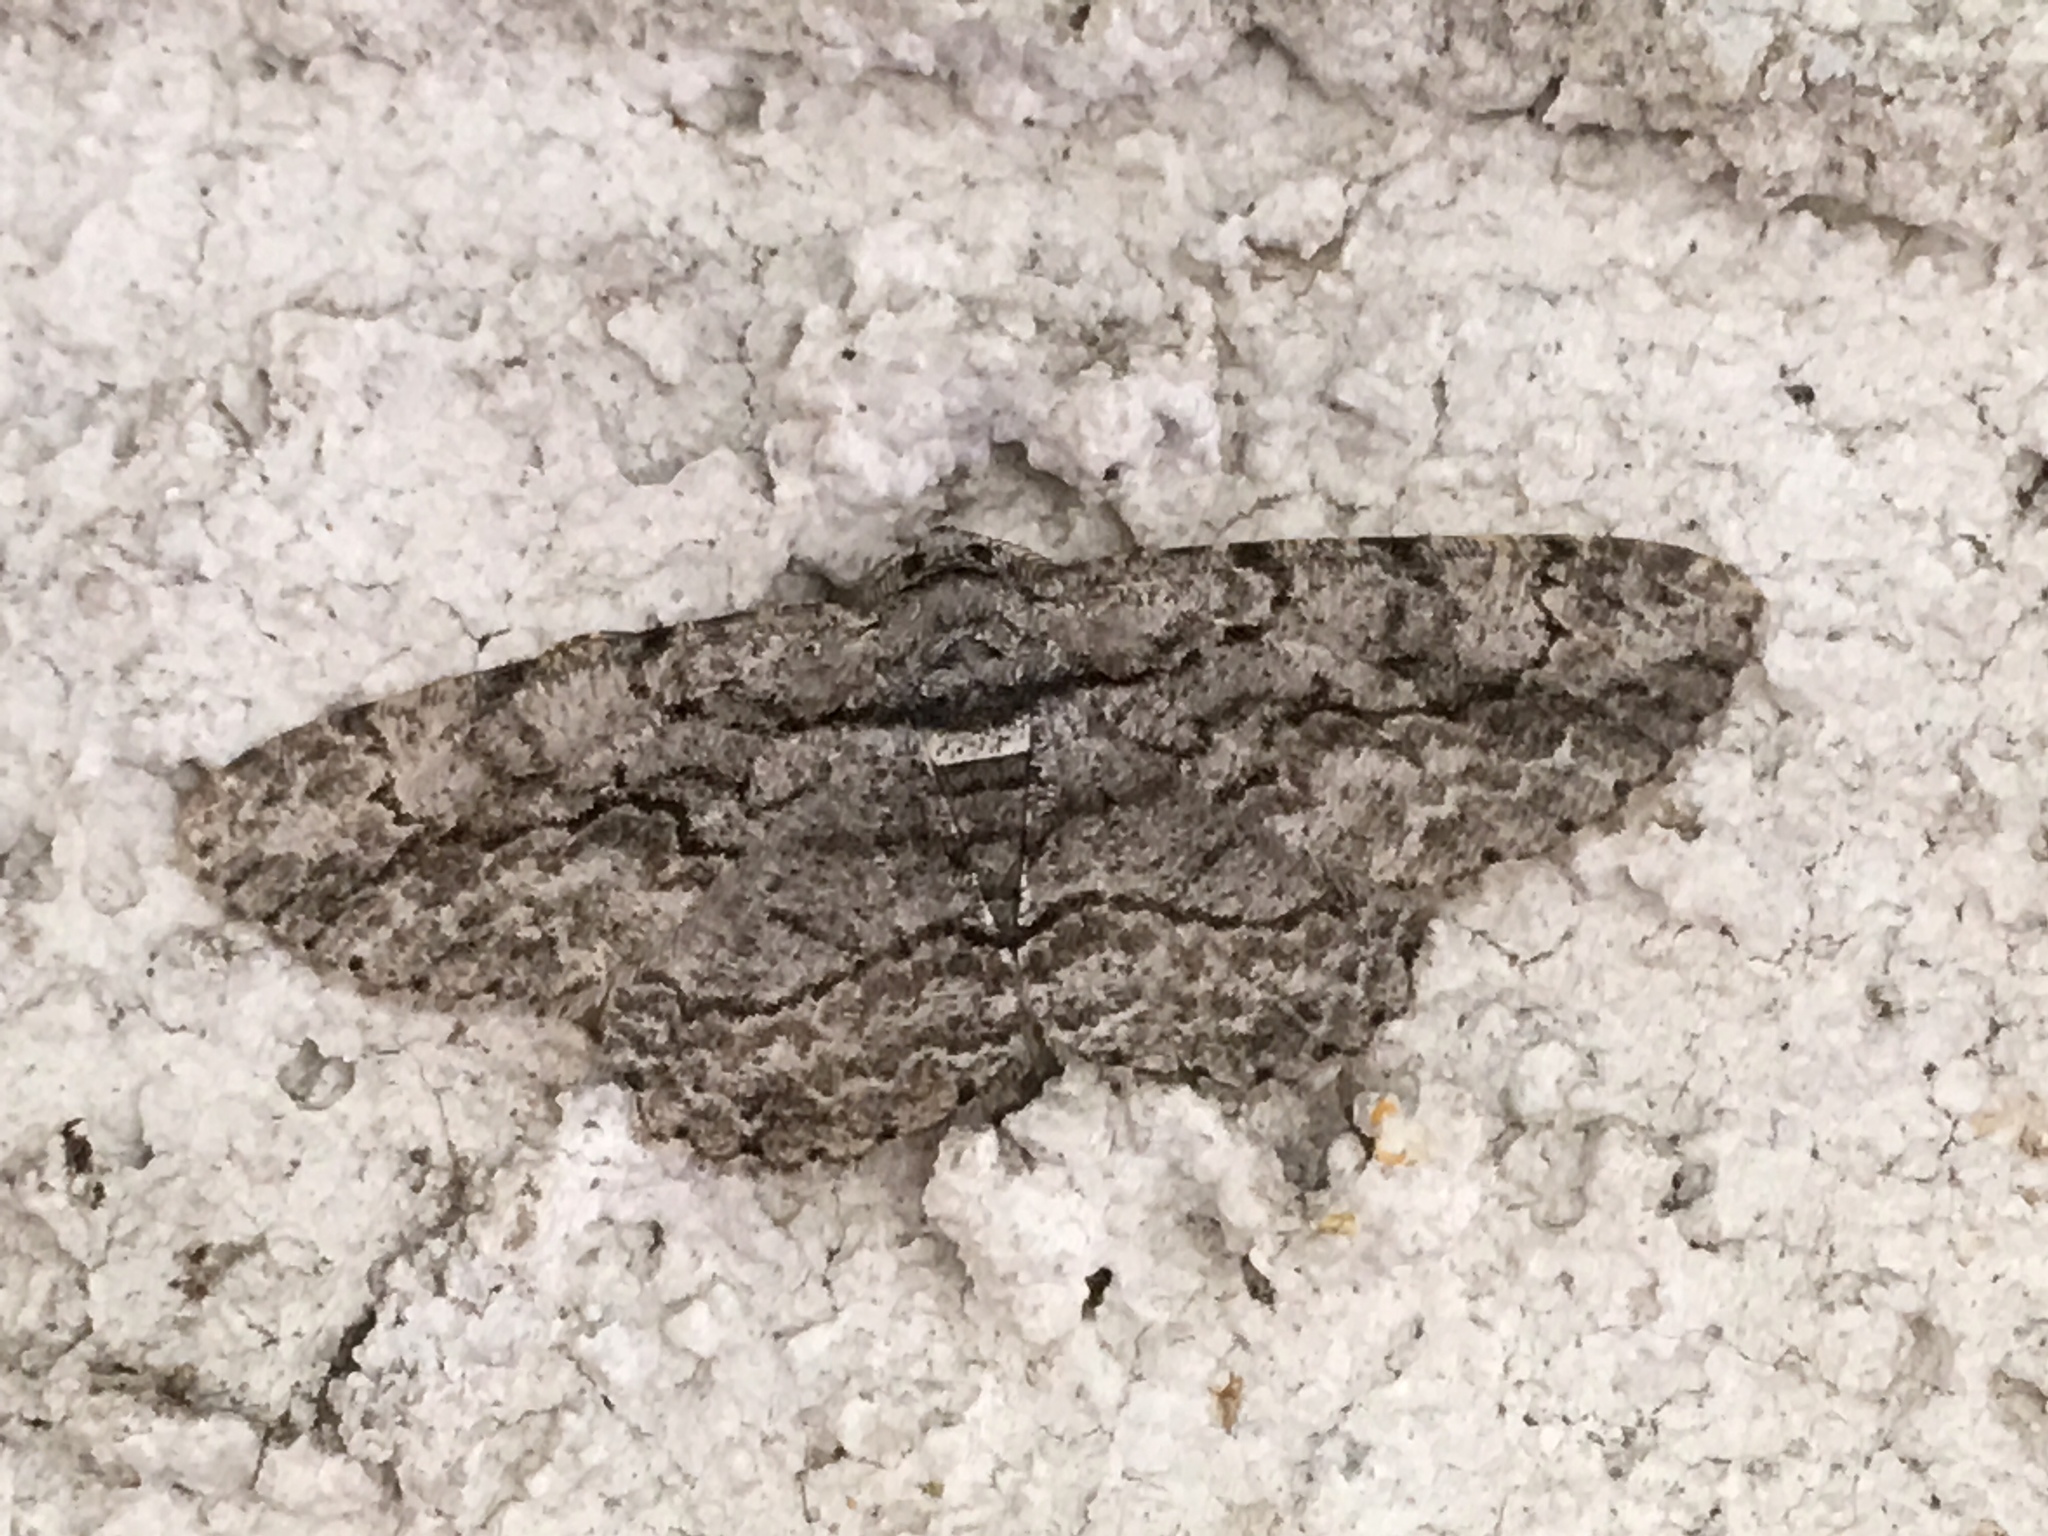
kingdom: Animalia
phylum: Arthropoda
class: Insecta
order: Lepidoptera
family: Geometridae
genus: Anavitrinella
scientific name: Anavitrinella pampinaria
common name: Common gray
